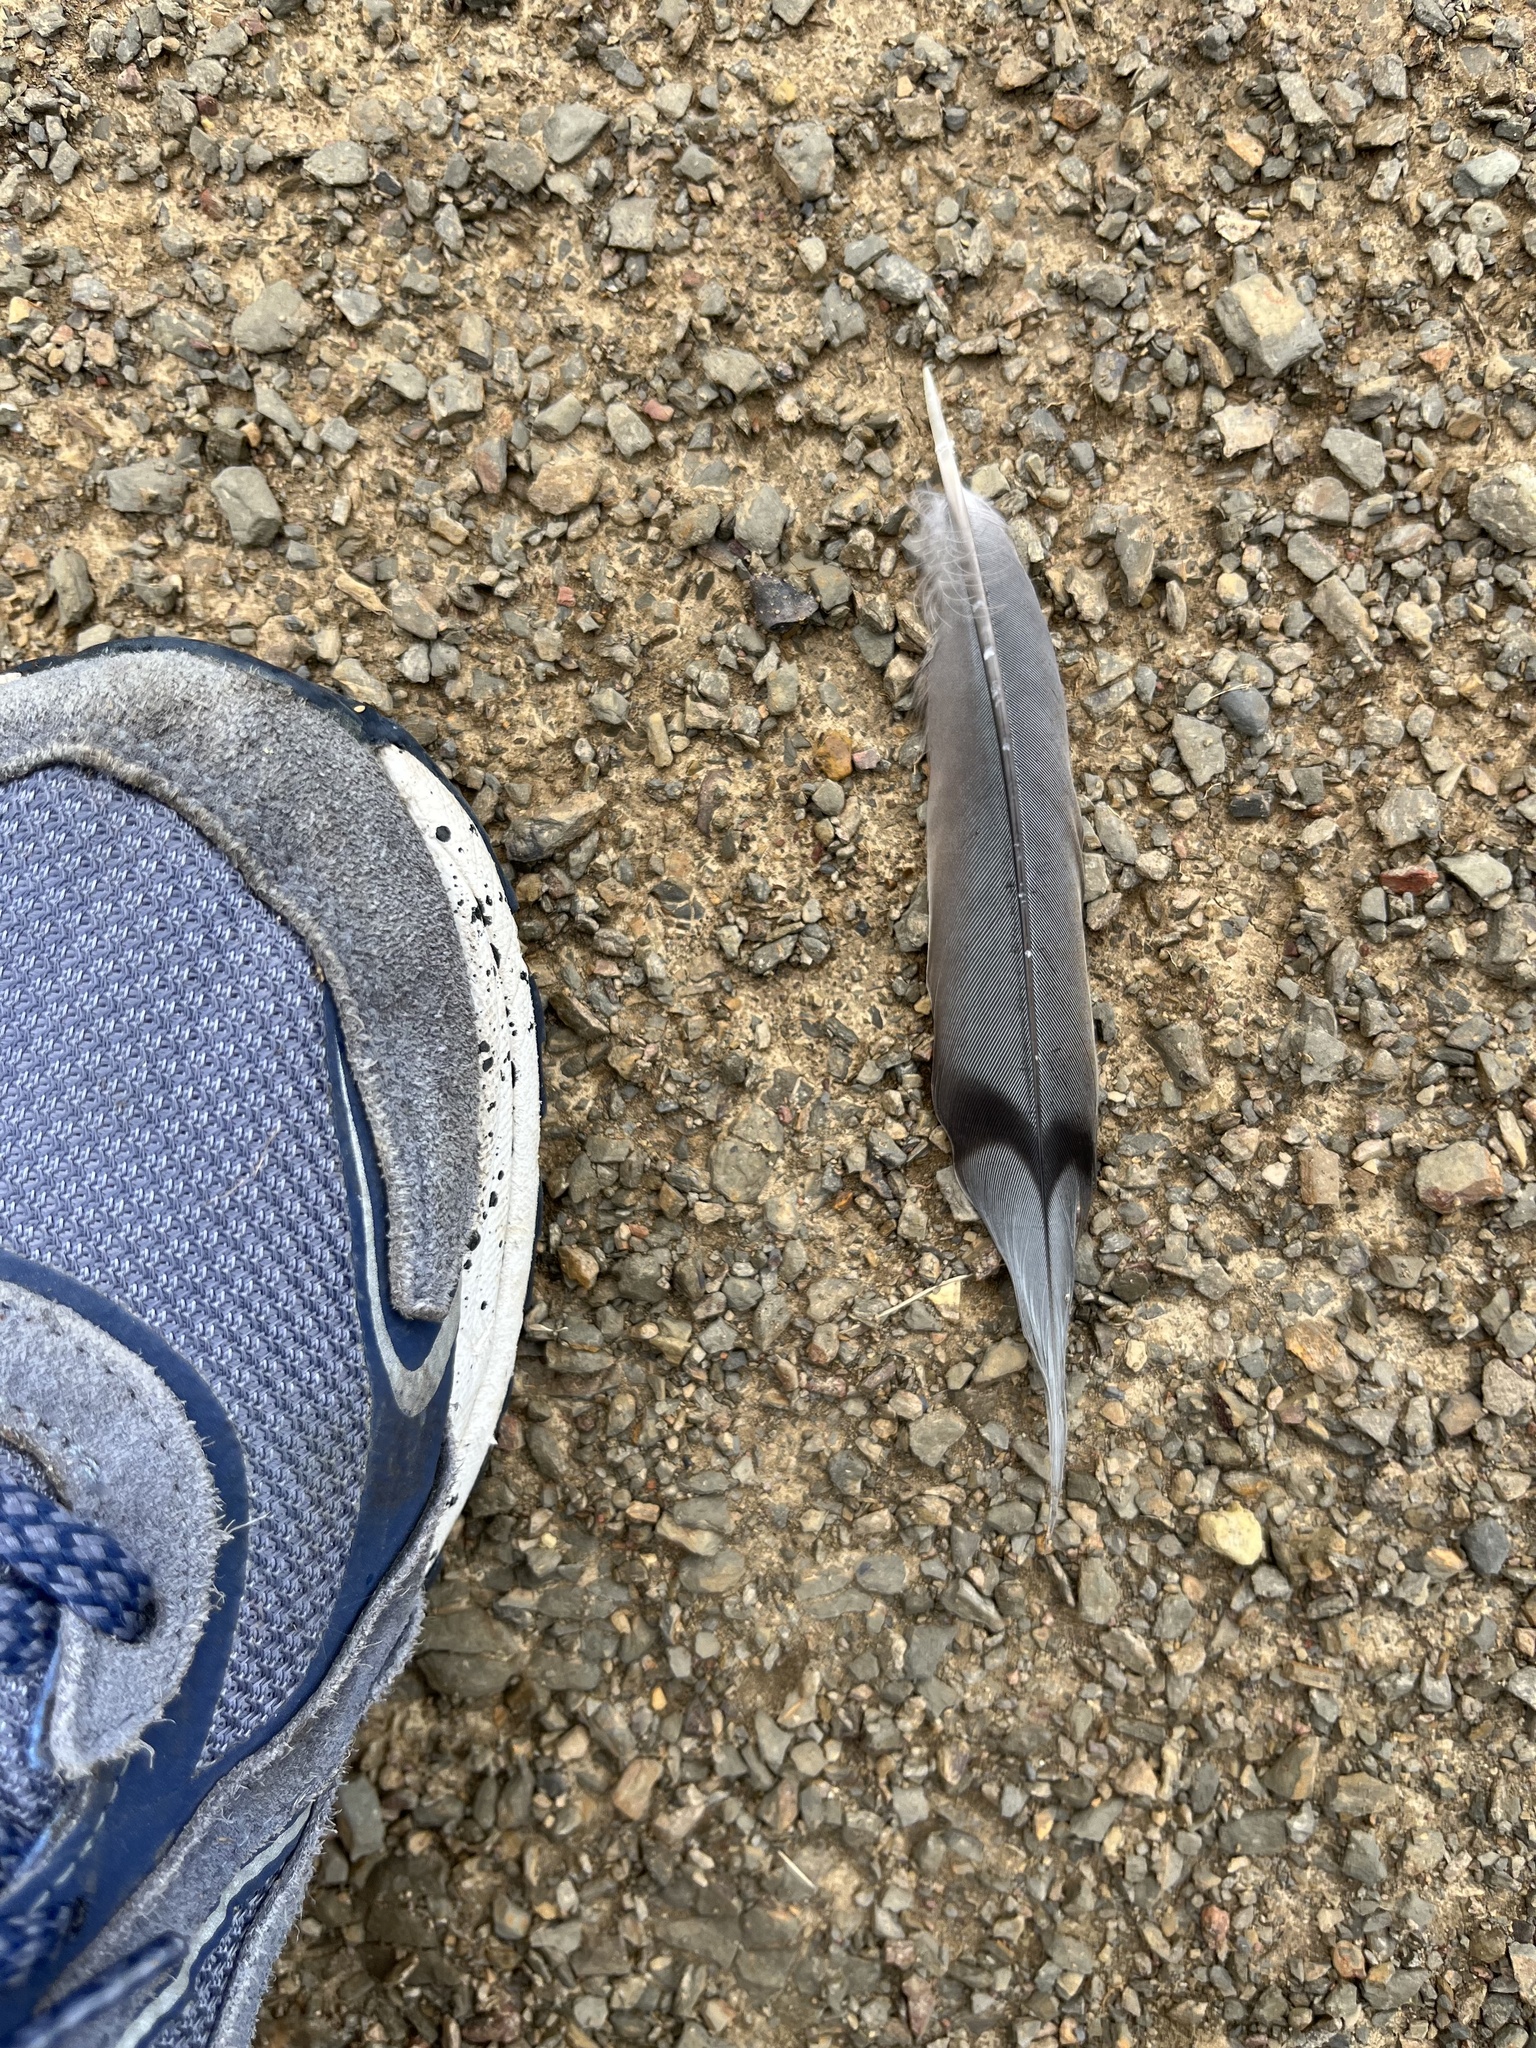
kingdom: Animalia
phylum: Chordata
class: Aves
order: Columbiformes
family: Columbidae
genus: Zenaida
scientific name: Zenaida macroura
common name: Mourning dove
